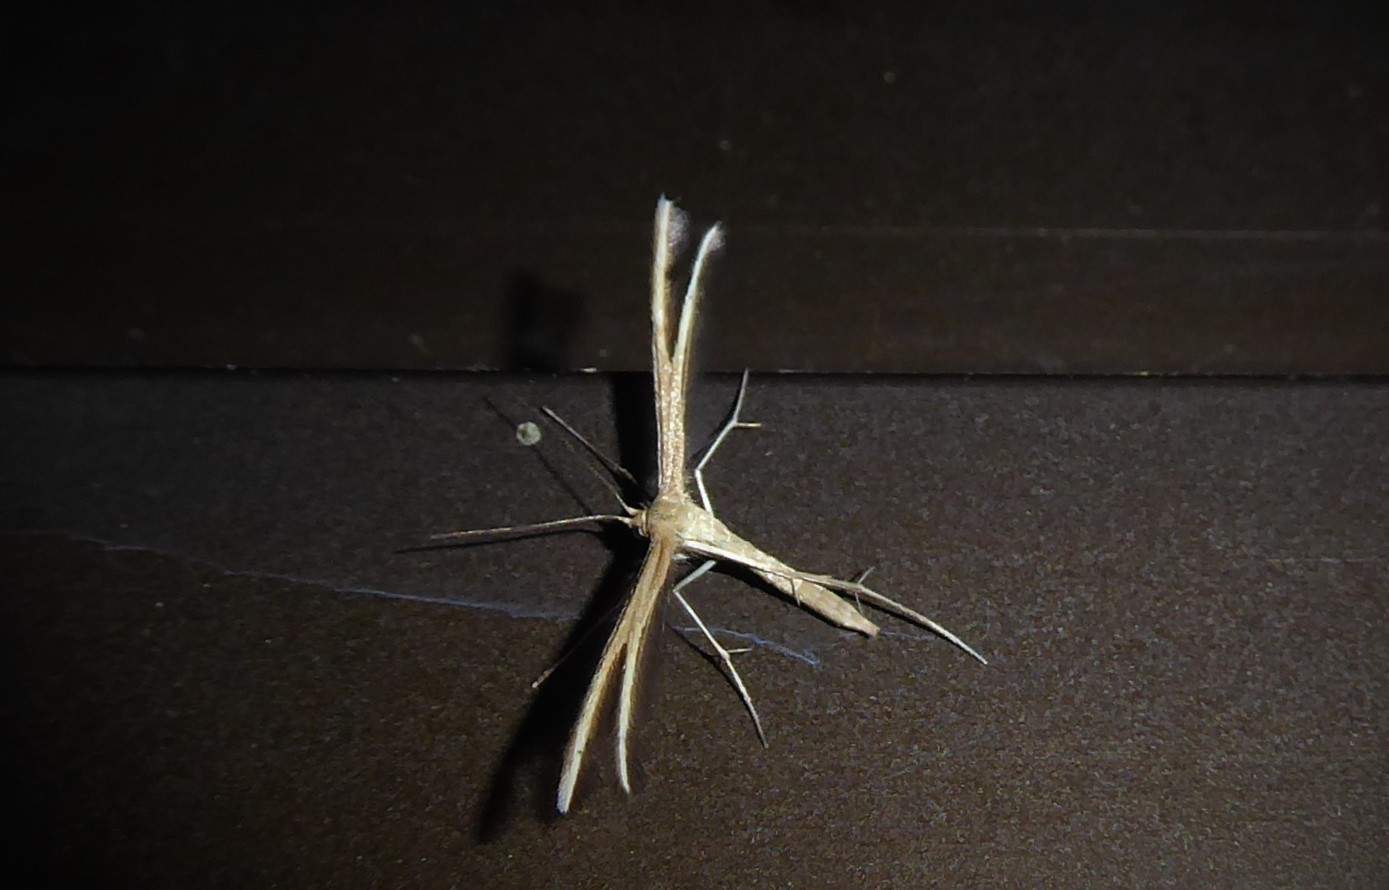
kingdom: Animalia
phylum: Arthropoda
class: Insecta
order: Lepidoptera
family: Pterophoridae
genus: Pterophorus
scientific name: Pterophorus innotatalis
